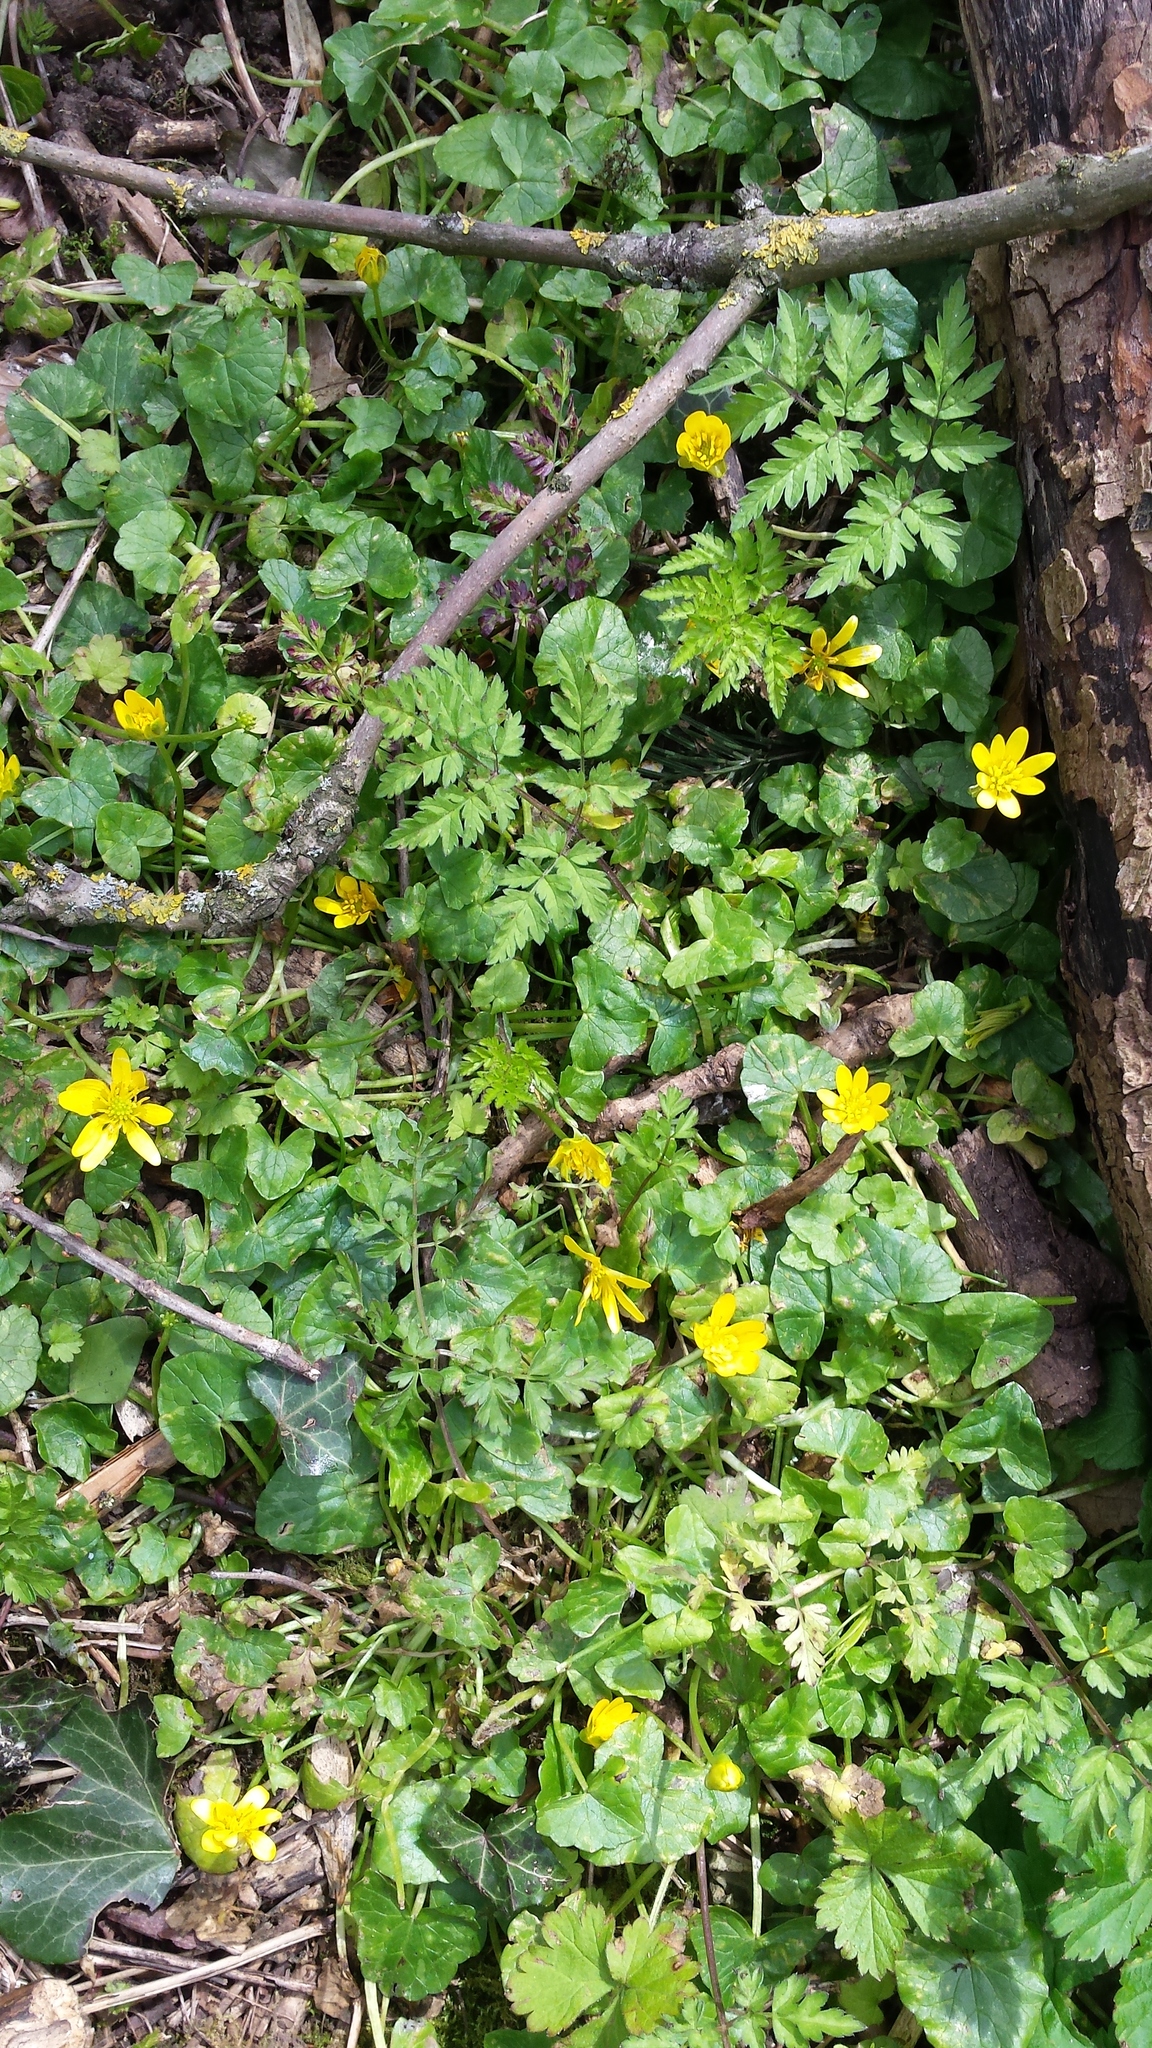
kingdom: Plantae
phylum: Tracheophyta
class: Magnoliopsida
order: Ranunculales
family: Ranunculaceae
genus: Ficaria
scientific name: Ficaria verna
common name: Lesser celandine
